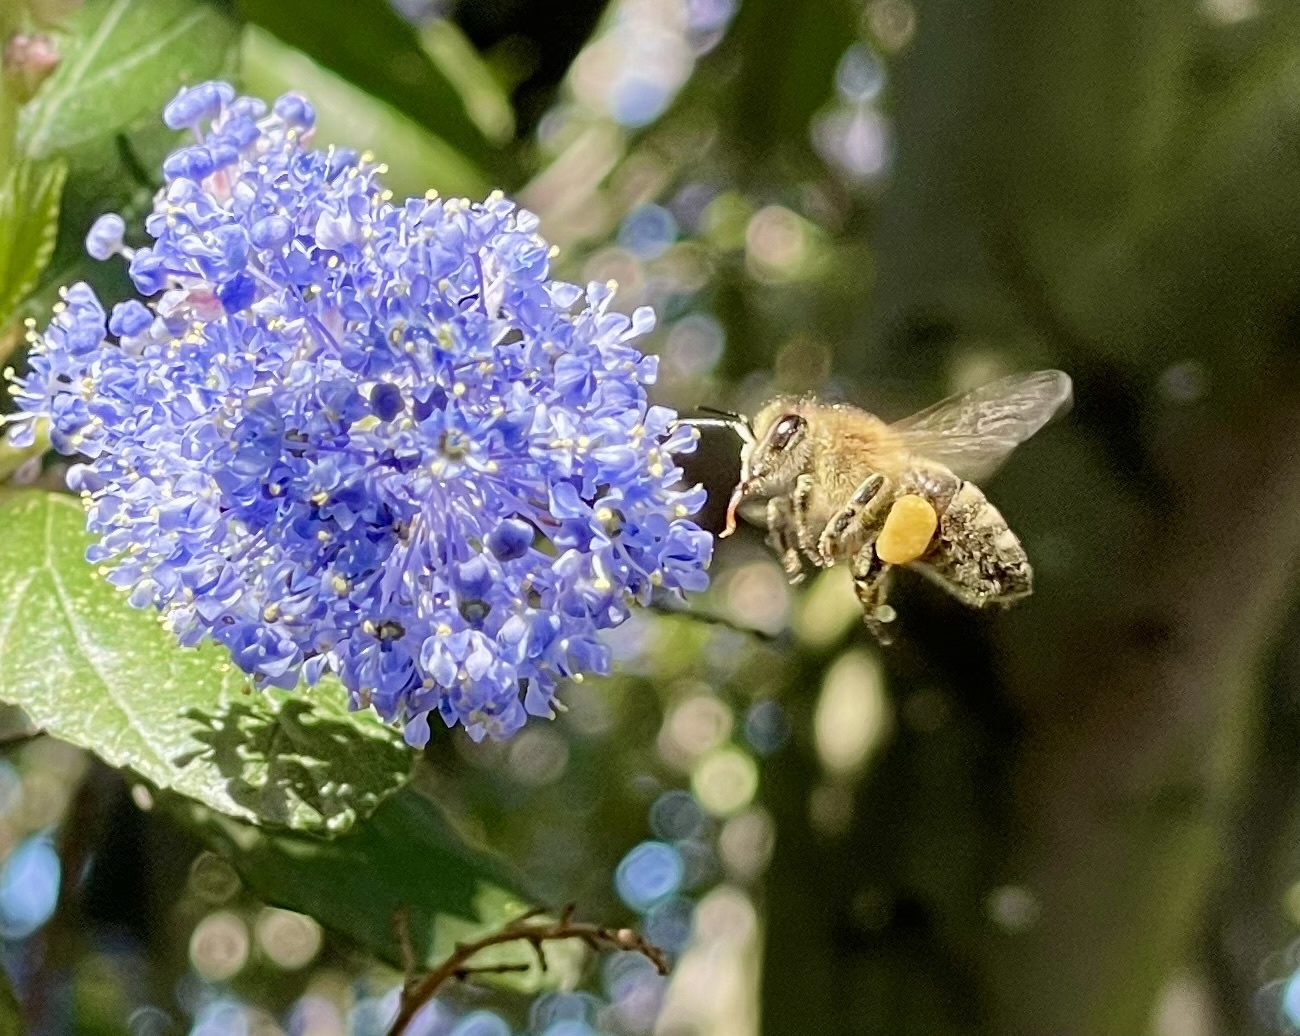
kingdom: Animalia
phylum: Arthropoda
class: Insecta
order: Hymenoptera
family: Apidae
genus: Apis
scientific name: Apis mellifera
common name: Honey bee
